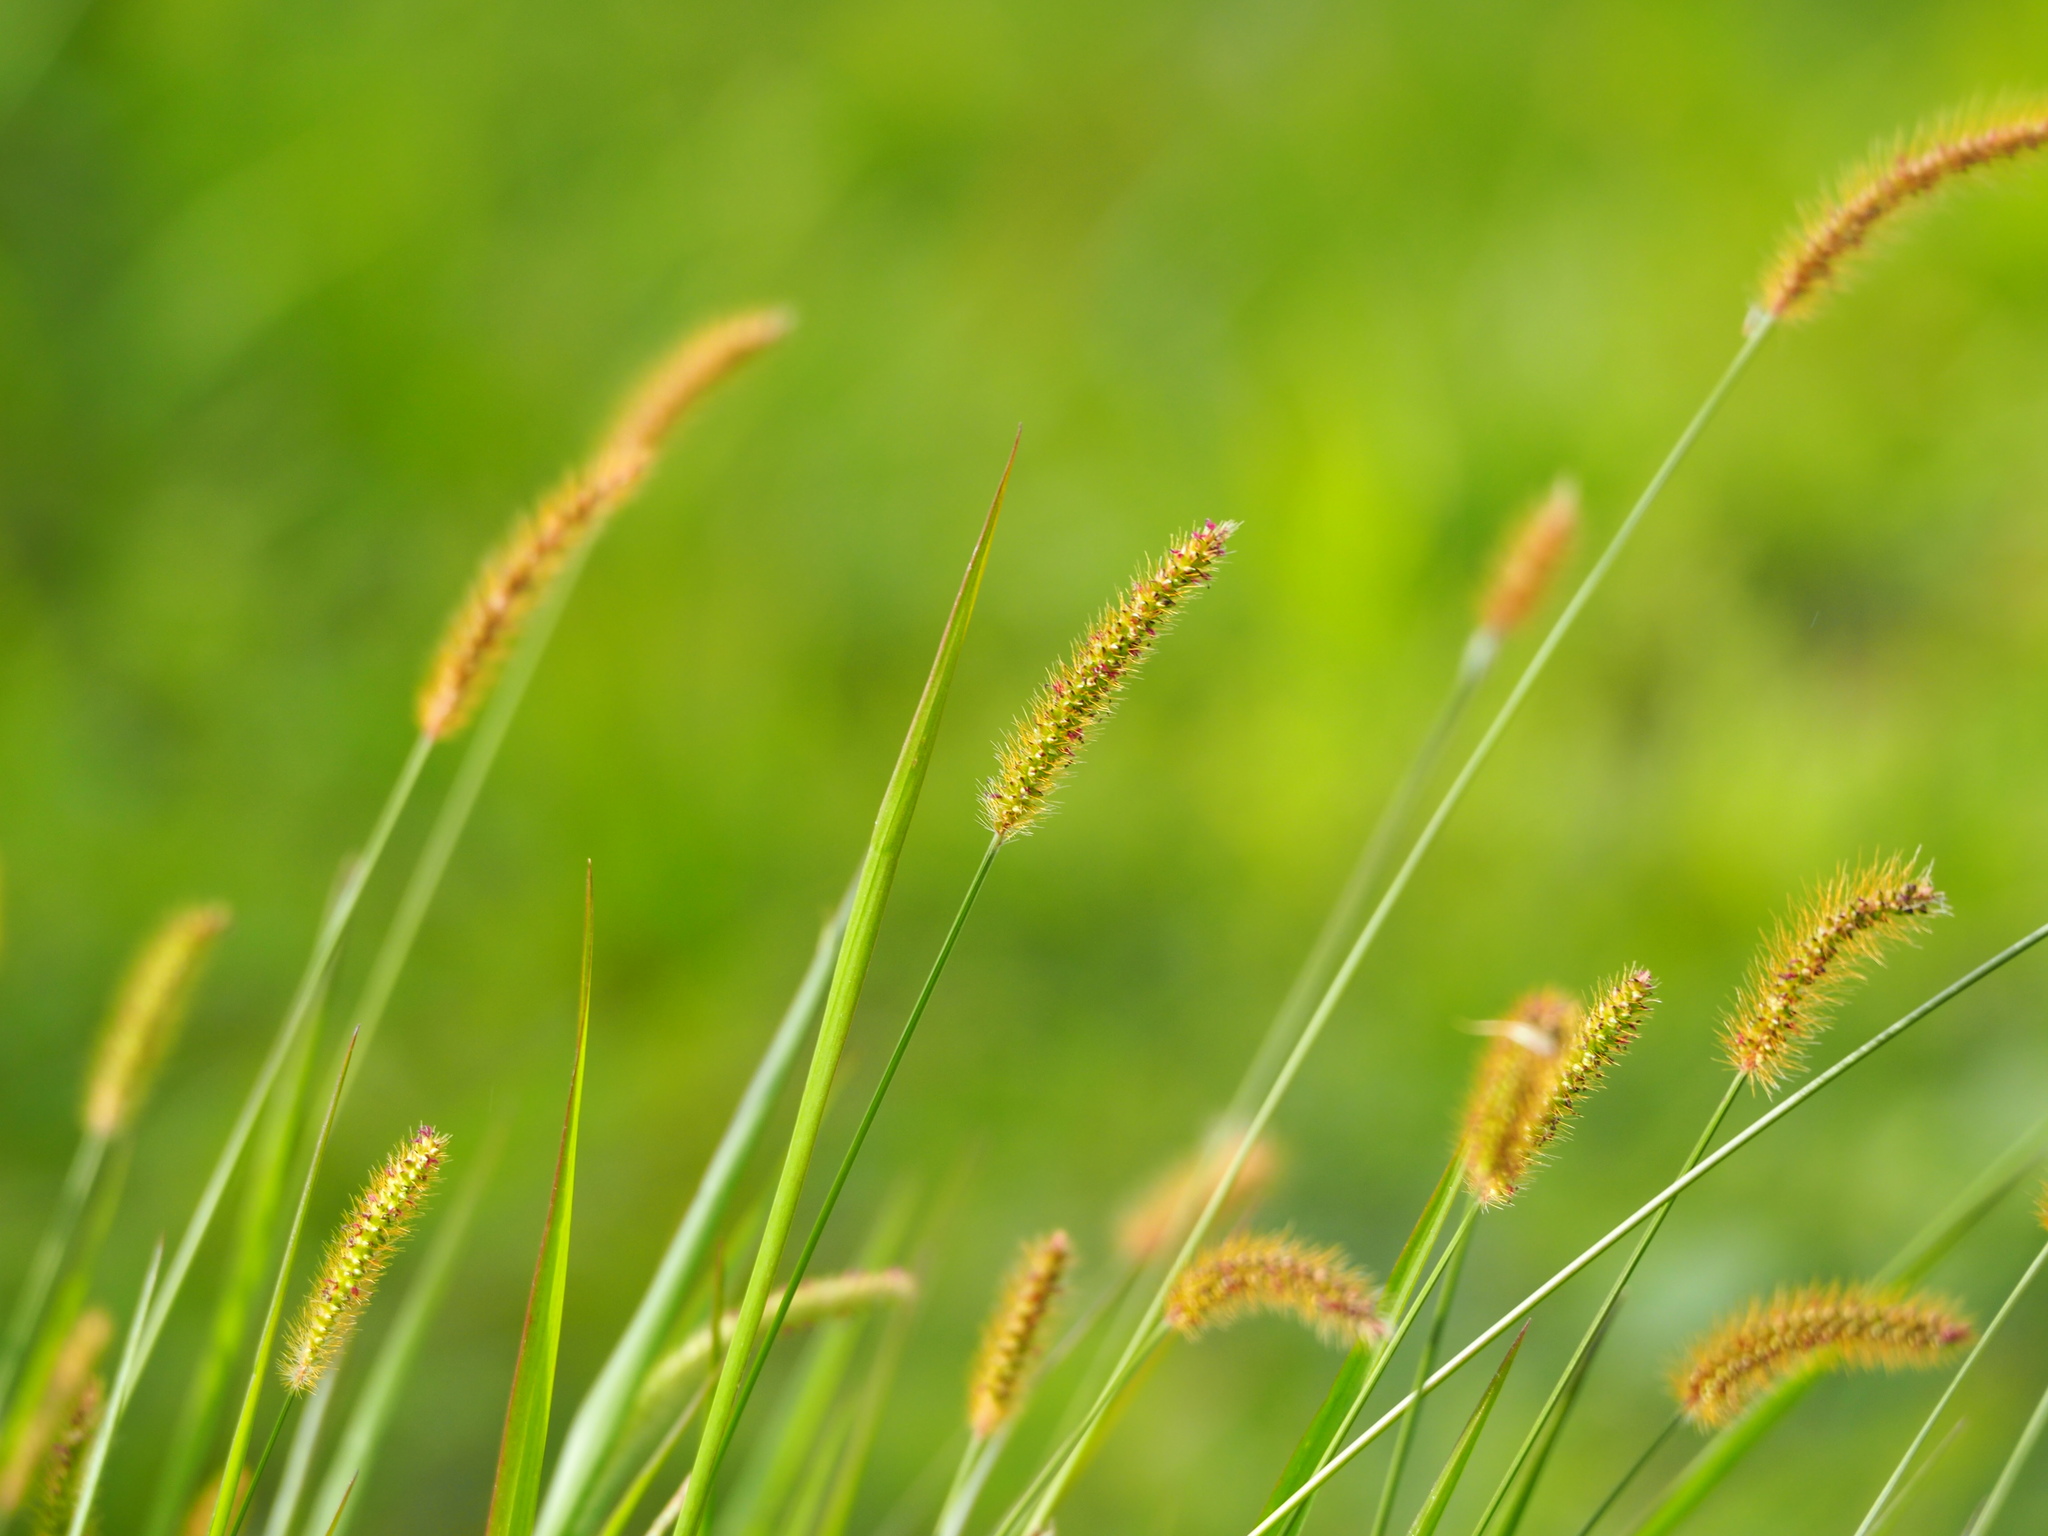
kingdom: Plantae
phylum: Tracheophyta
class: Liliopsida
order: Poales
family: Poaceae
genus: Setaria
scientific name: Setaria parviflora
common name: Knotroot bristle-grass
